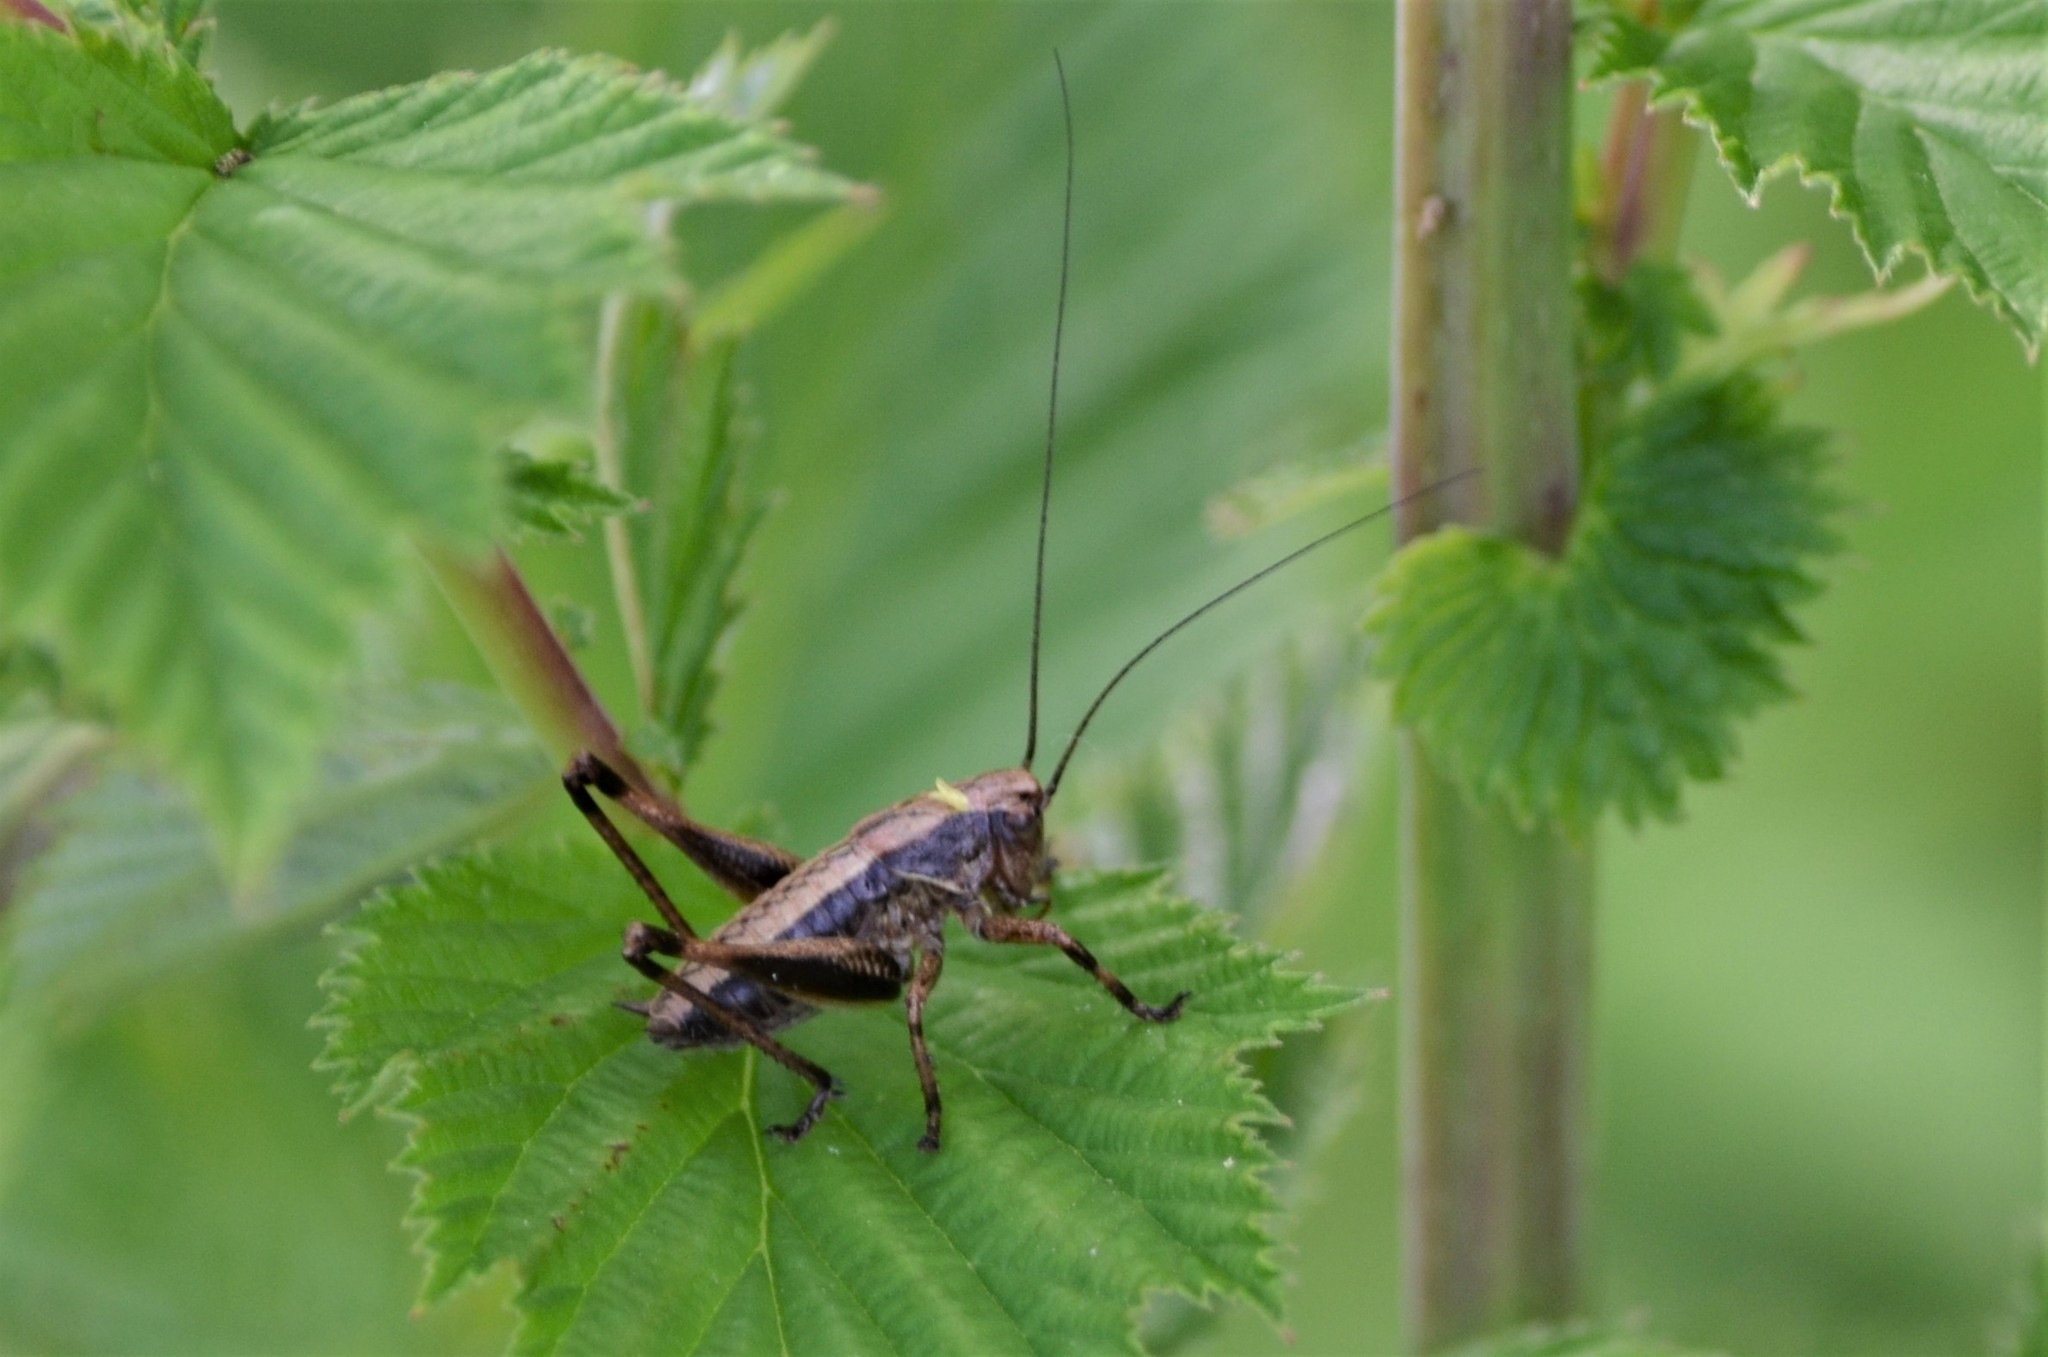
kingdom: Animalia
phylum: Arthropoda
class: Insecta
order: Orthoptera
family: Tettigoniidae
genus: Pholidoptera
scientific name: Pholidoptera griseoaptera
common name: Dark bush-cricket
